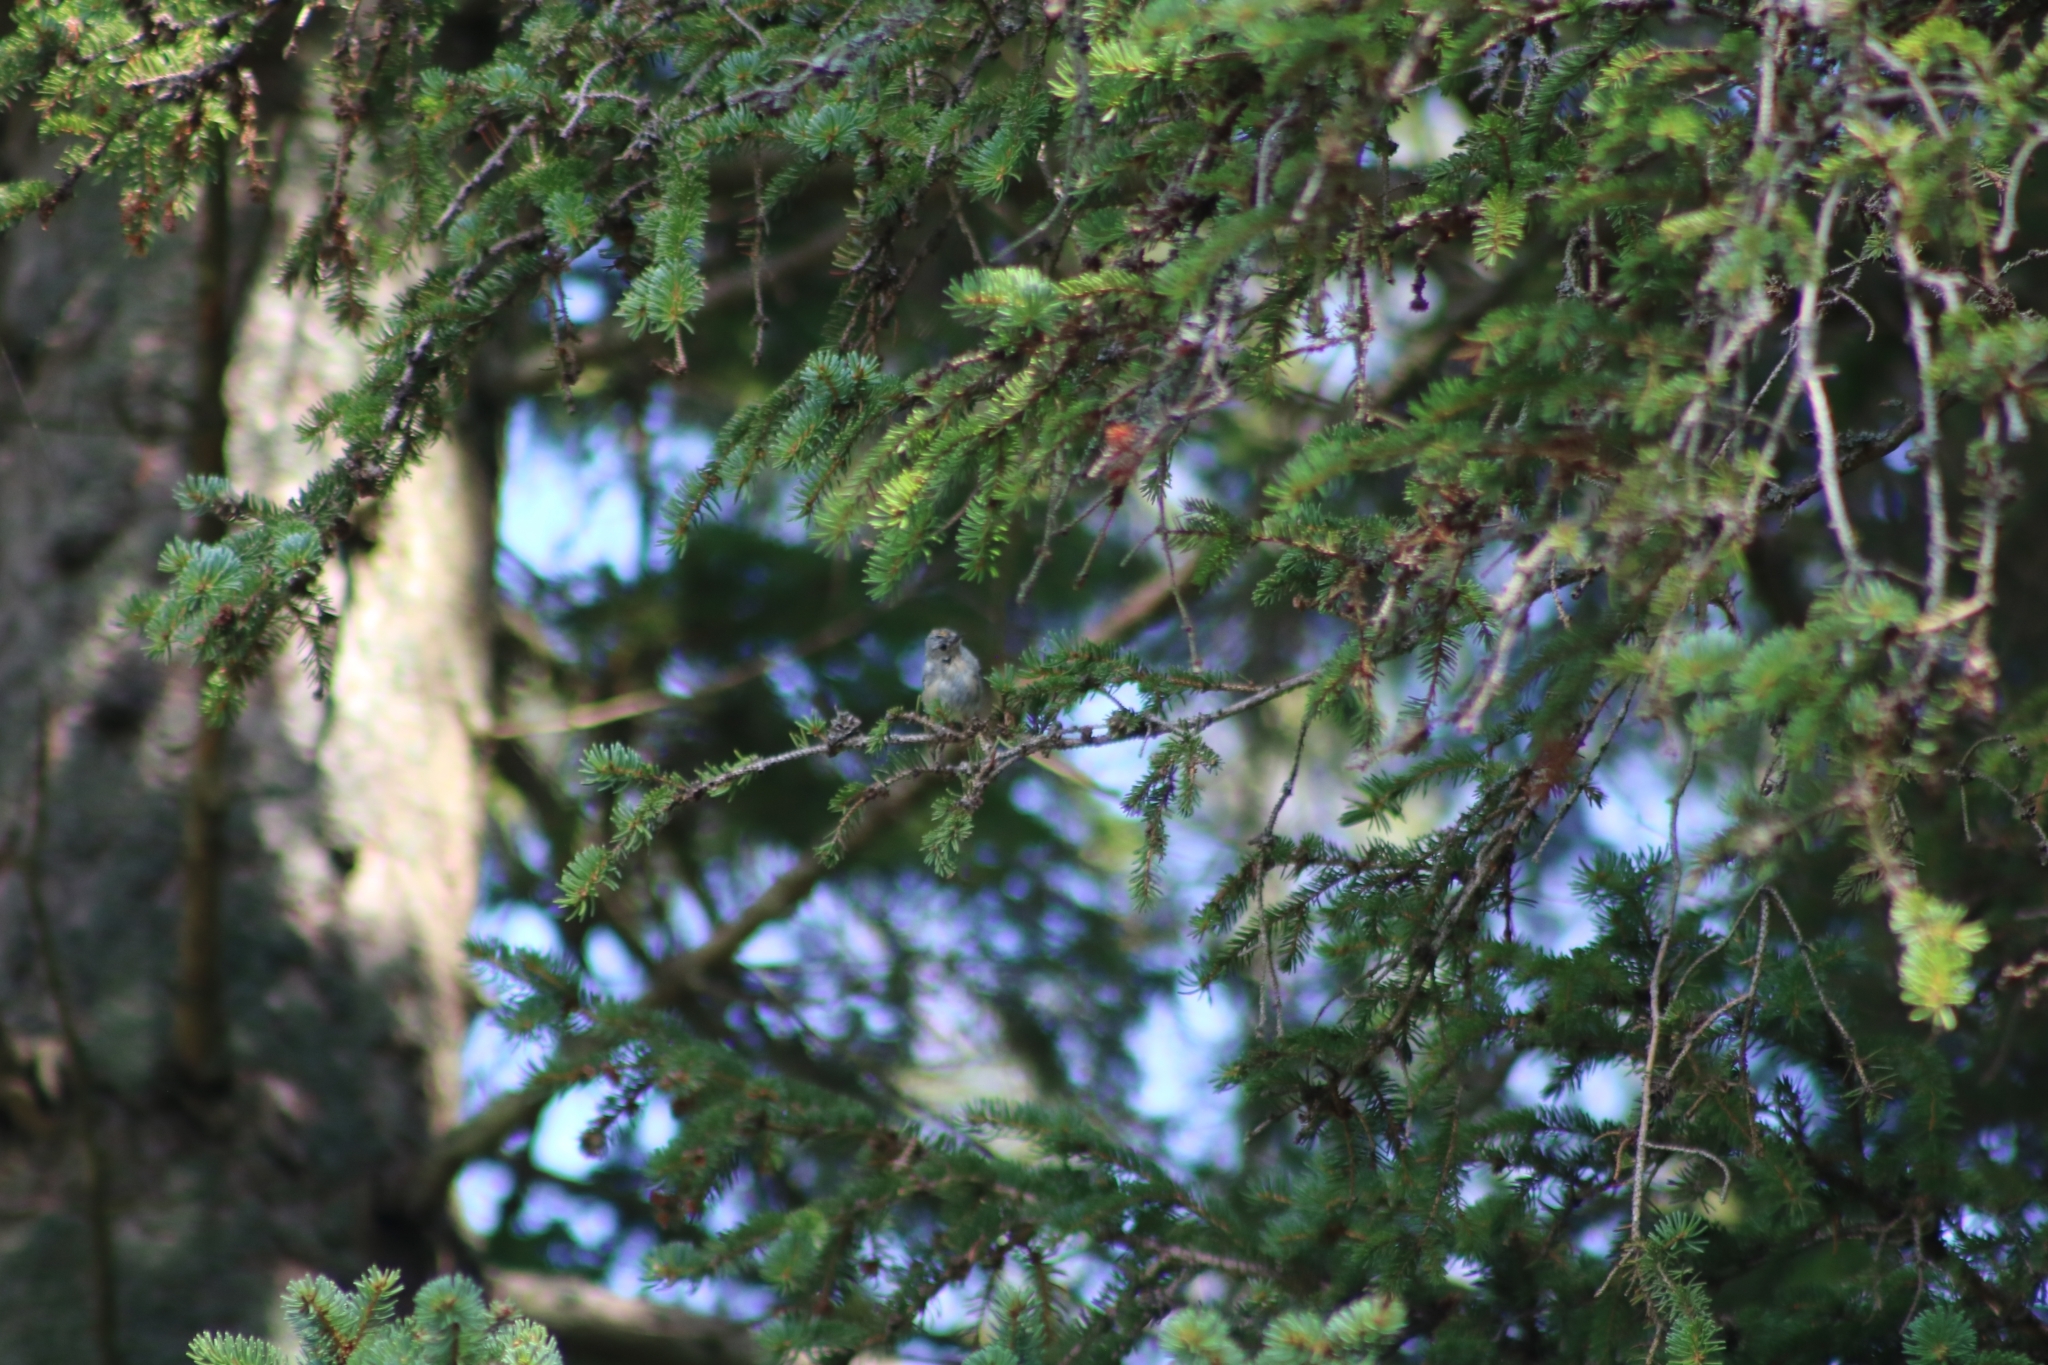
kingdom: Animalia
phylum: Chordata
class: Aves
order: Passeriformes
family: Regulidae
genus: Regulus
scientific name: Regulus regulus
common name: Goldcrest
